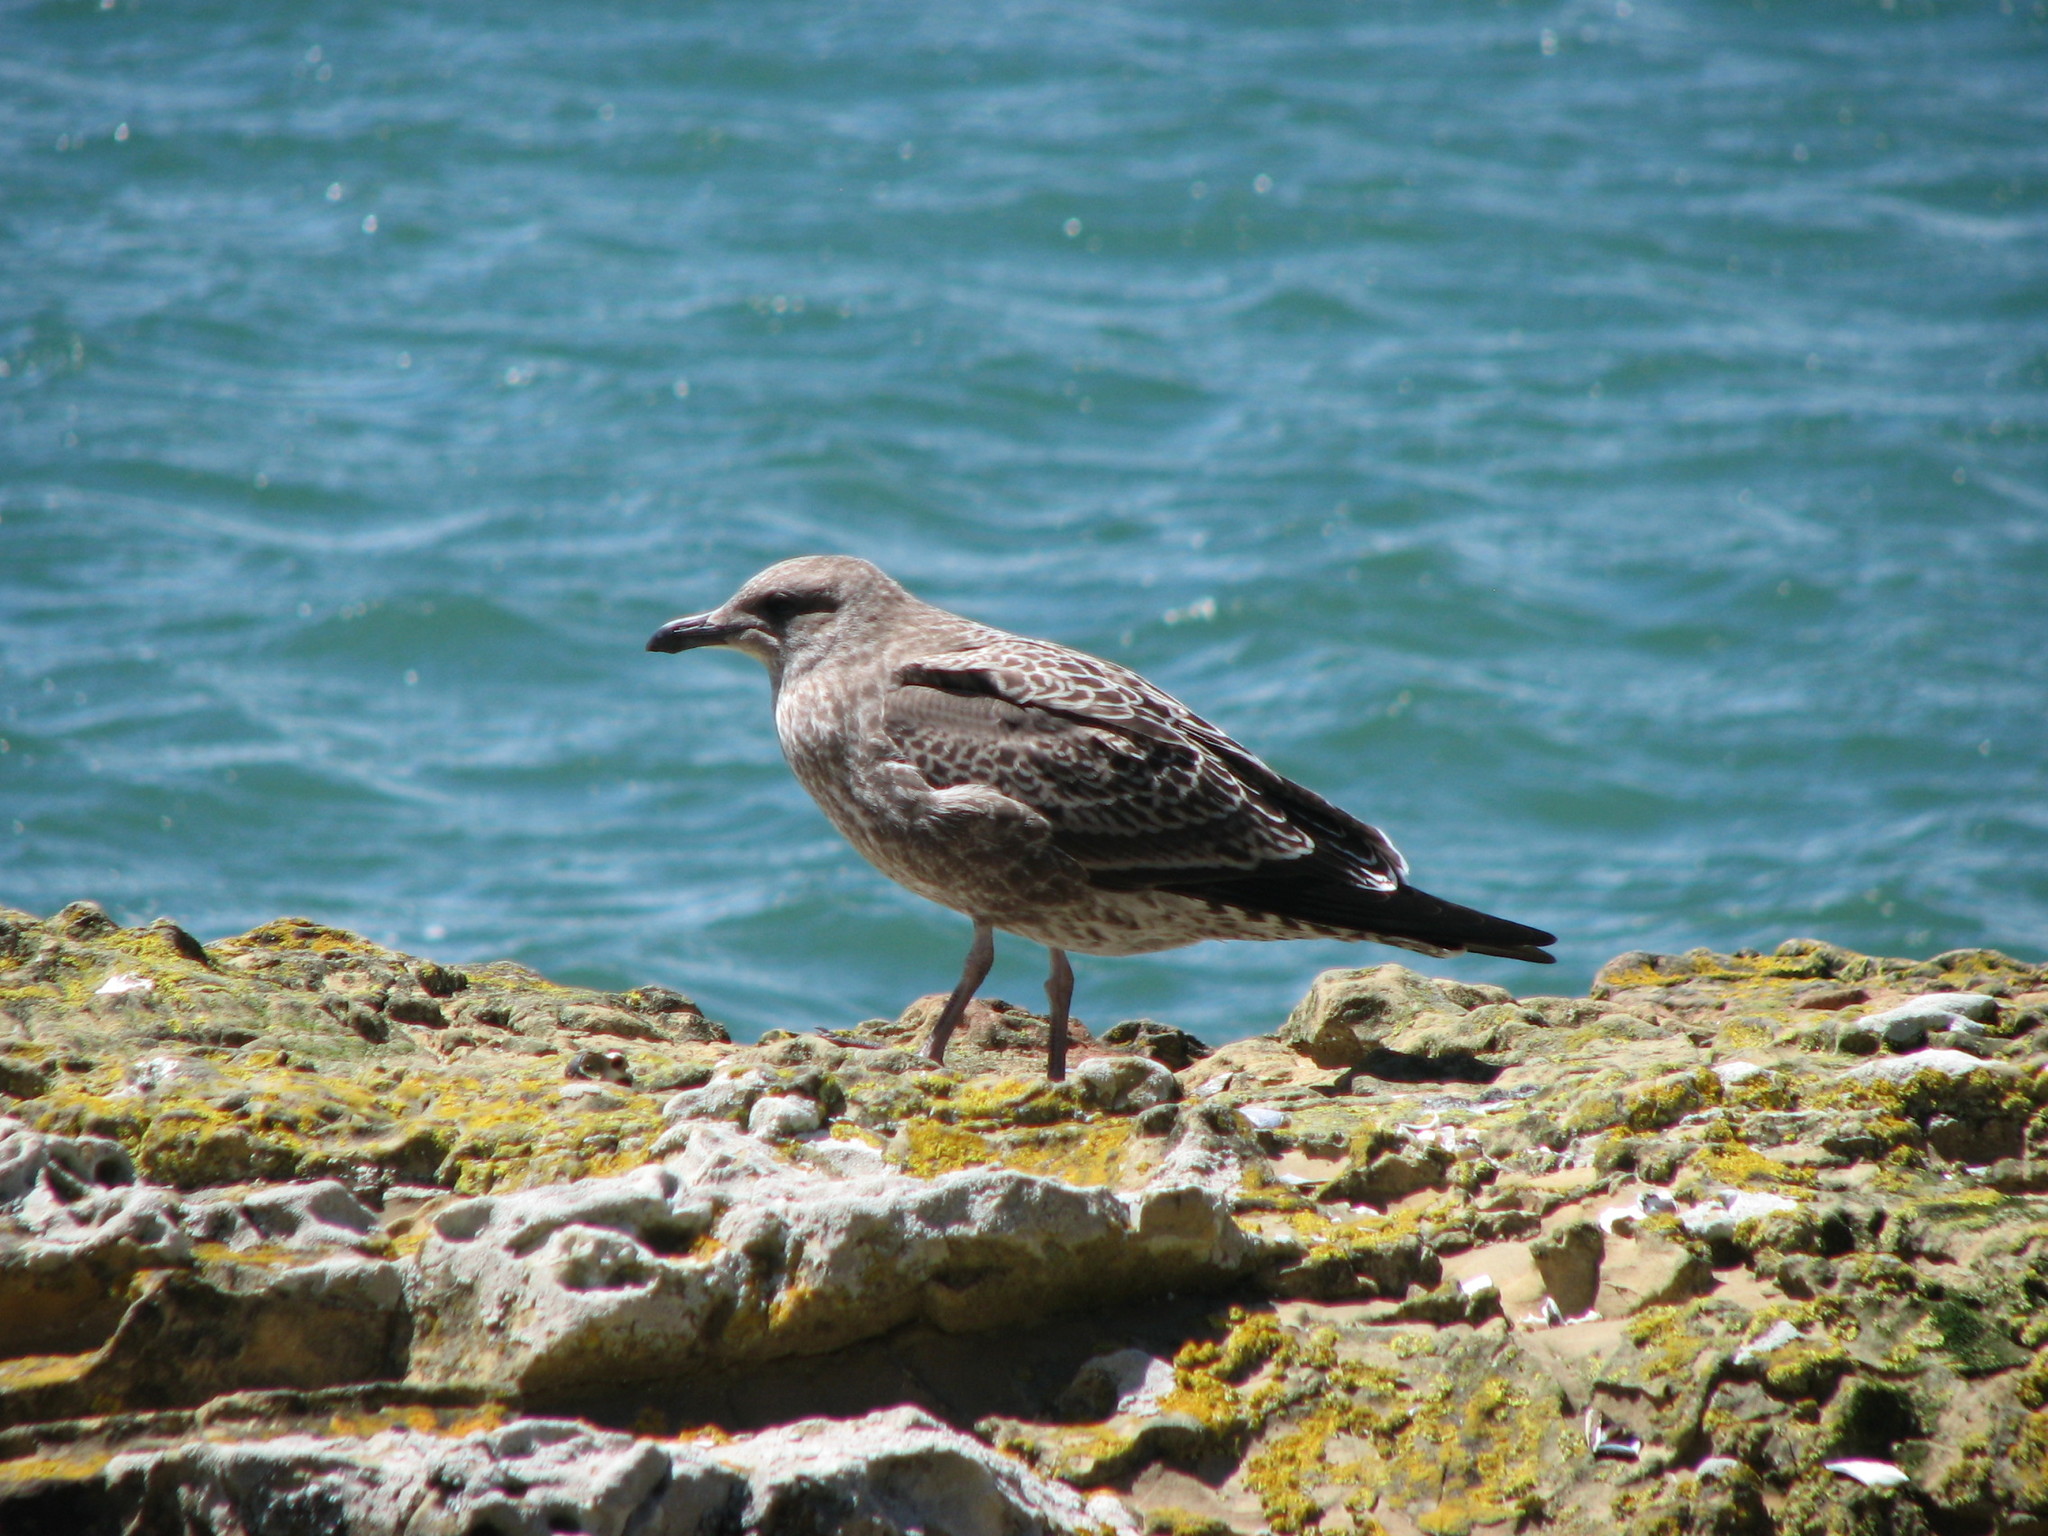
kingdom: Animalia
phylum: Chordata
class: Aves
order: Charadriiformes
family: Laridae
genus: Larus
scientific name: Larus dominicanus
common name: Kelp gull
